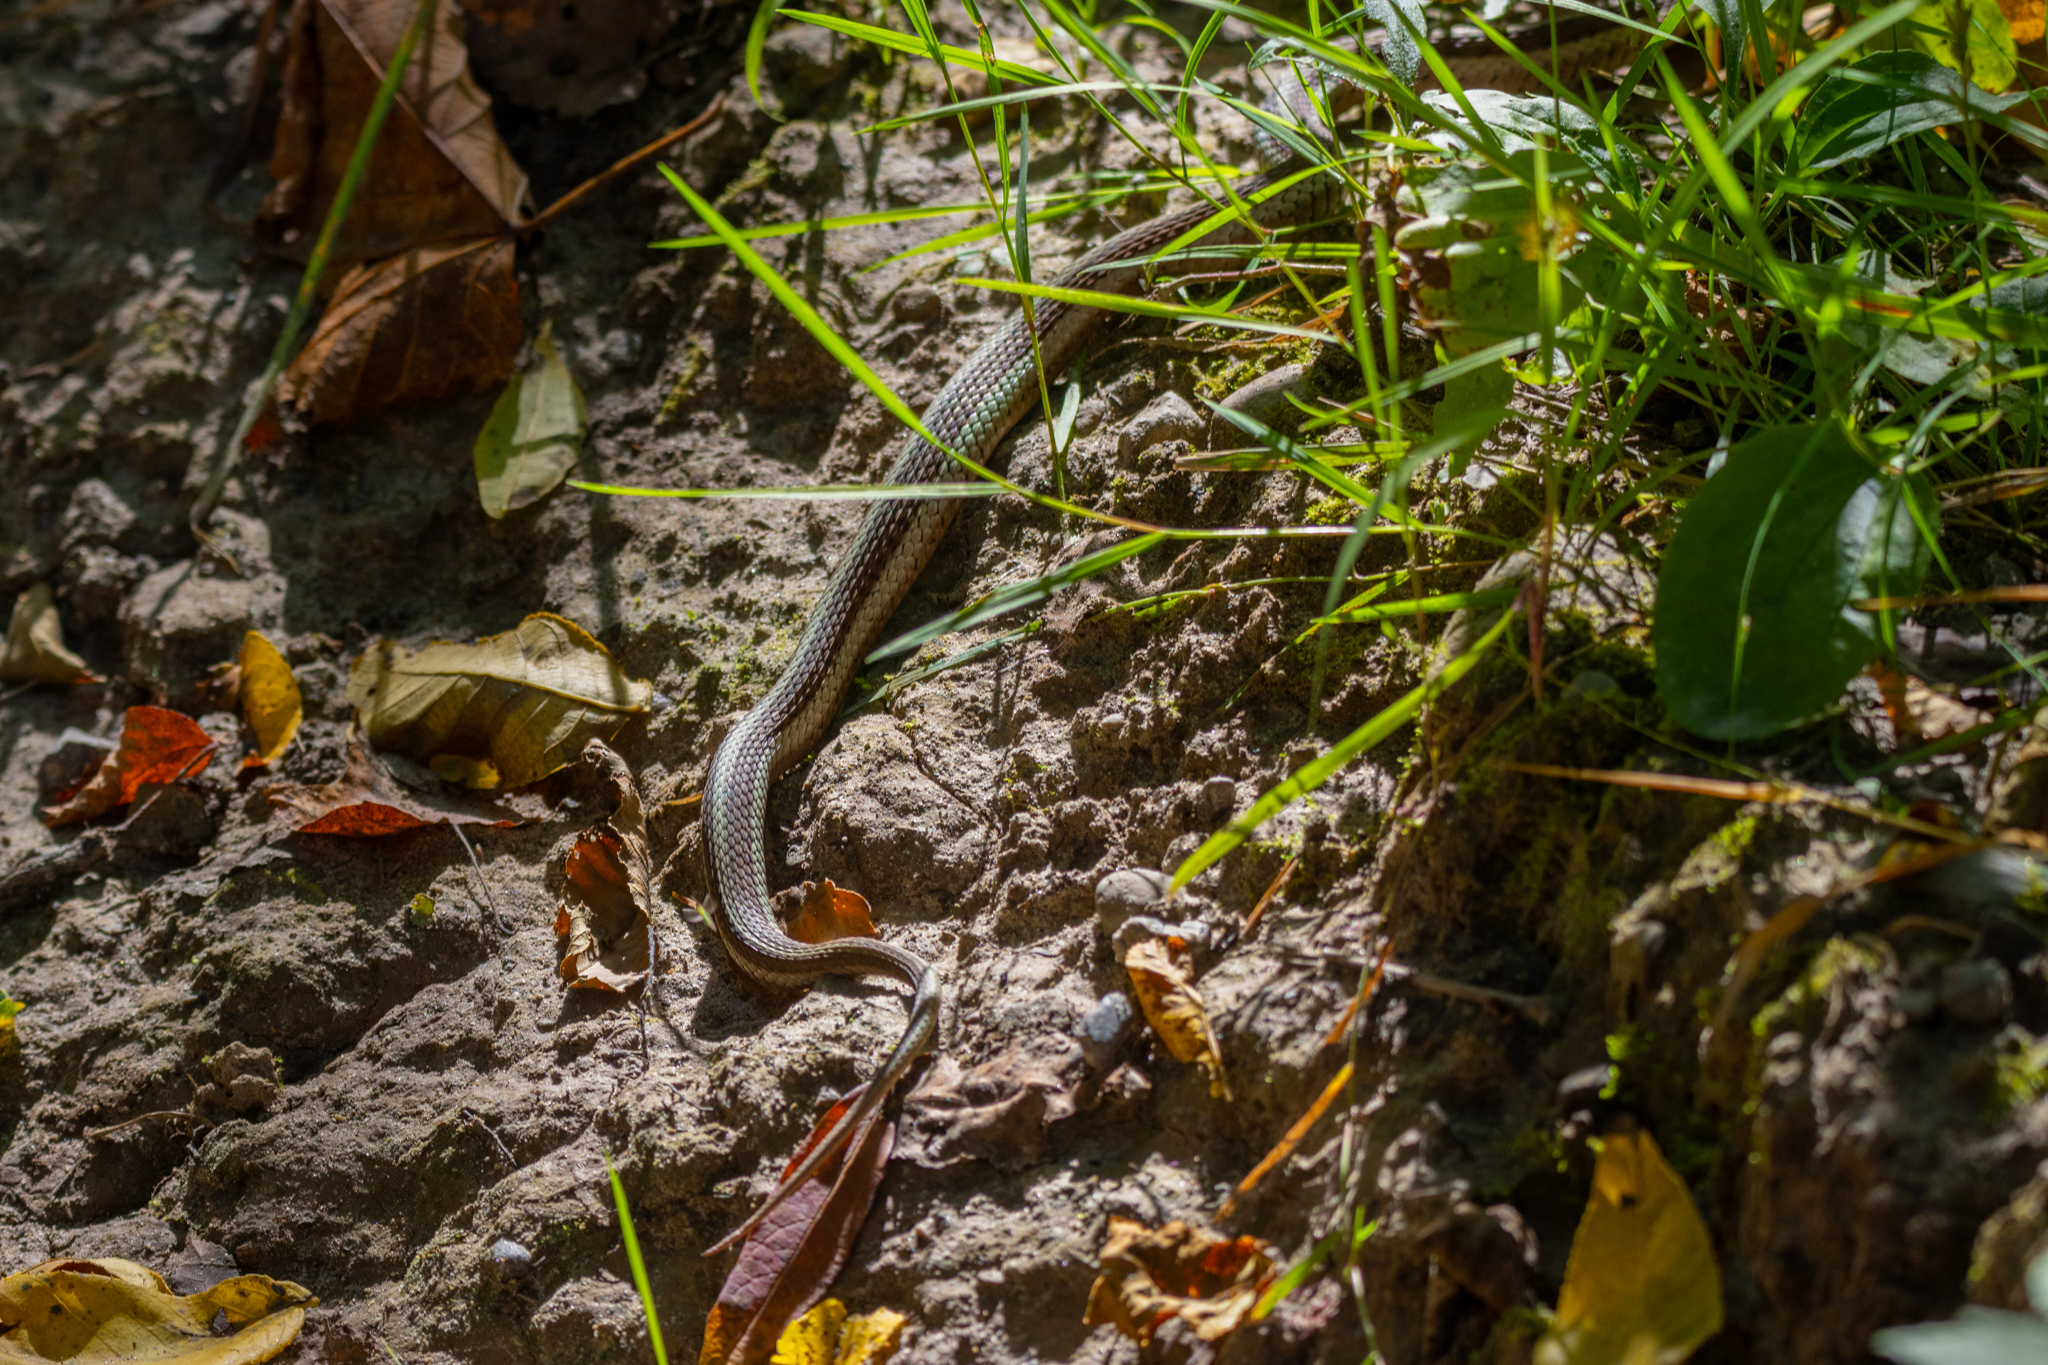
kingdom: Animalia
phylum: Chordata
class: Squamata
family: Colubridae
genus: Thamnophis
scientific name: Thamnophis sirtalis
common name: Common garter snake
